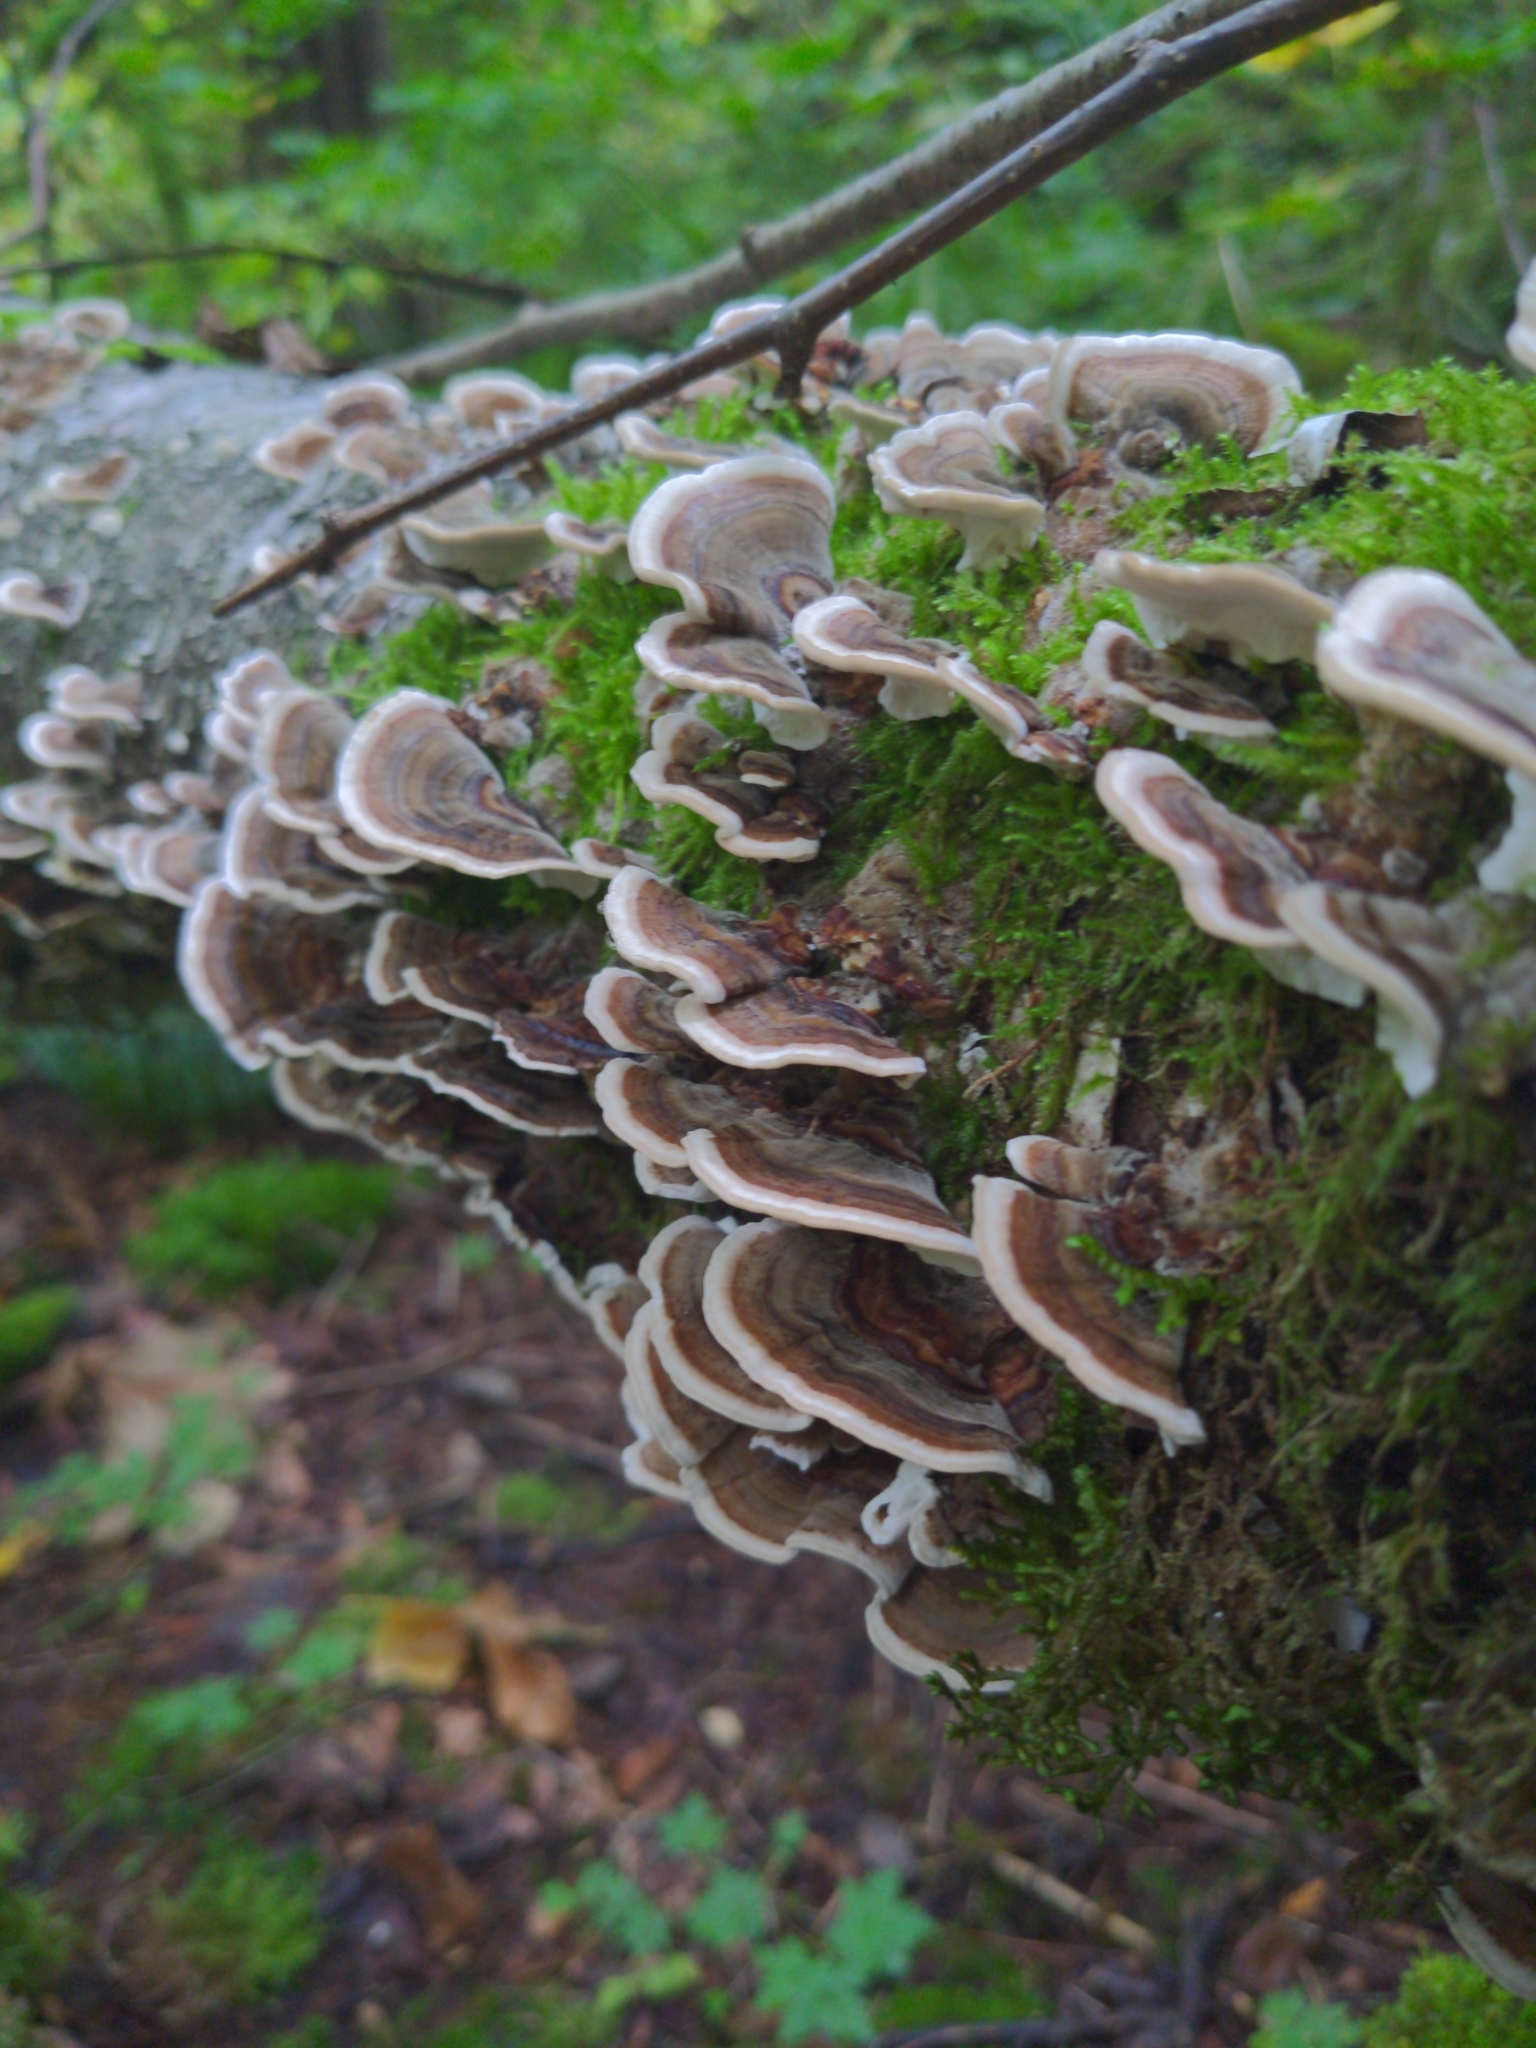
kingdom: Fungi
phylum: Basidiomycota
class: Agaricomycetes
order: Polyporales
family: Polyporaceae
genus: Trametes
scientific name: Trametes versicolor
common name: Turkeytail
